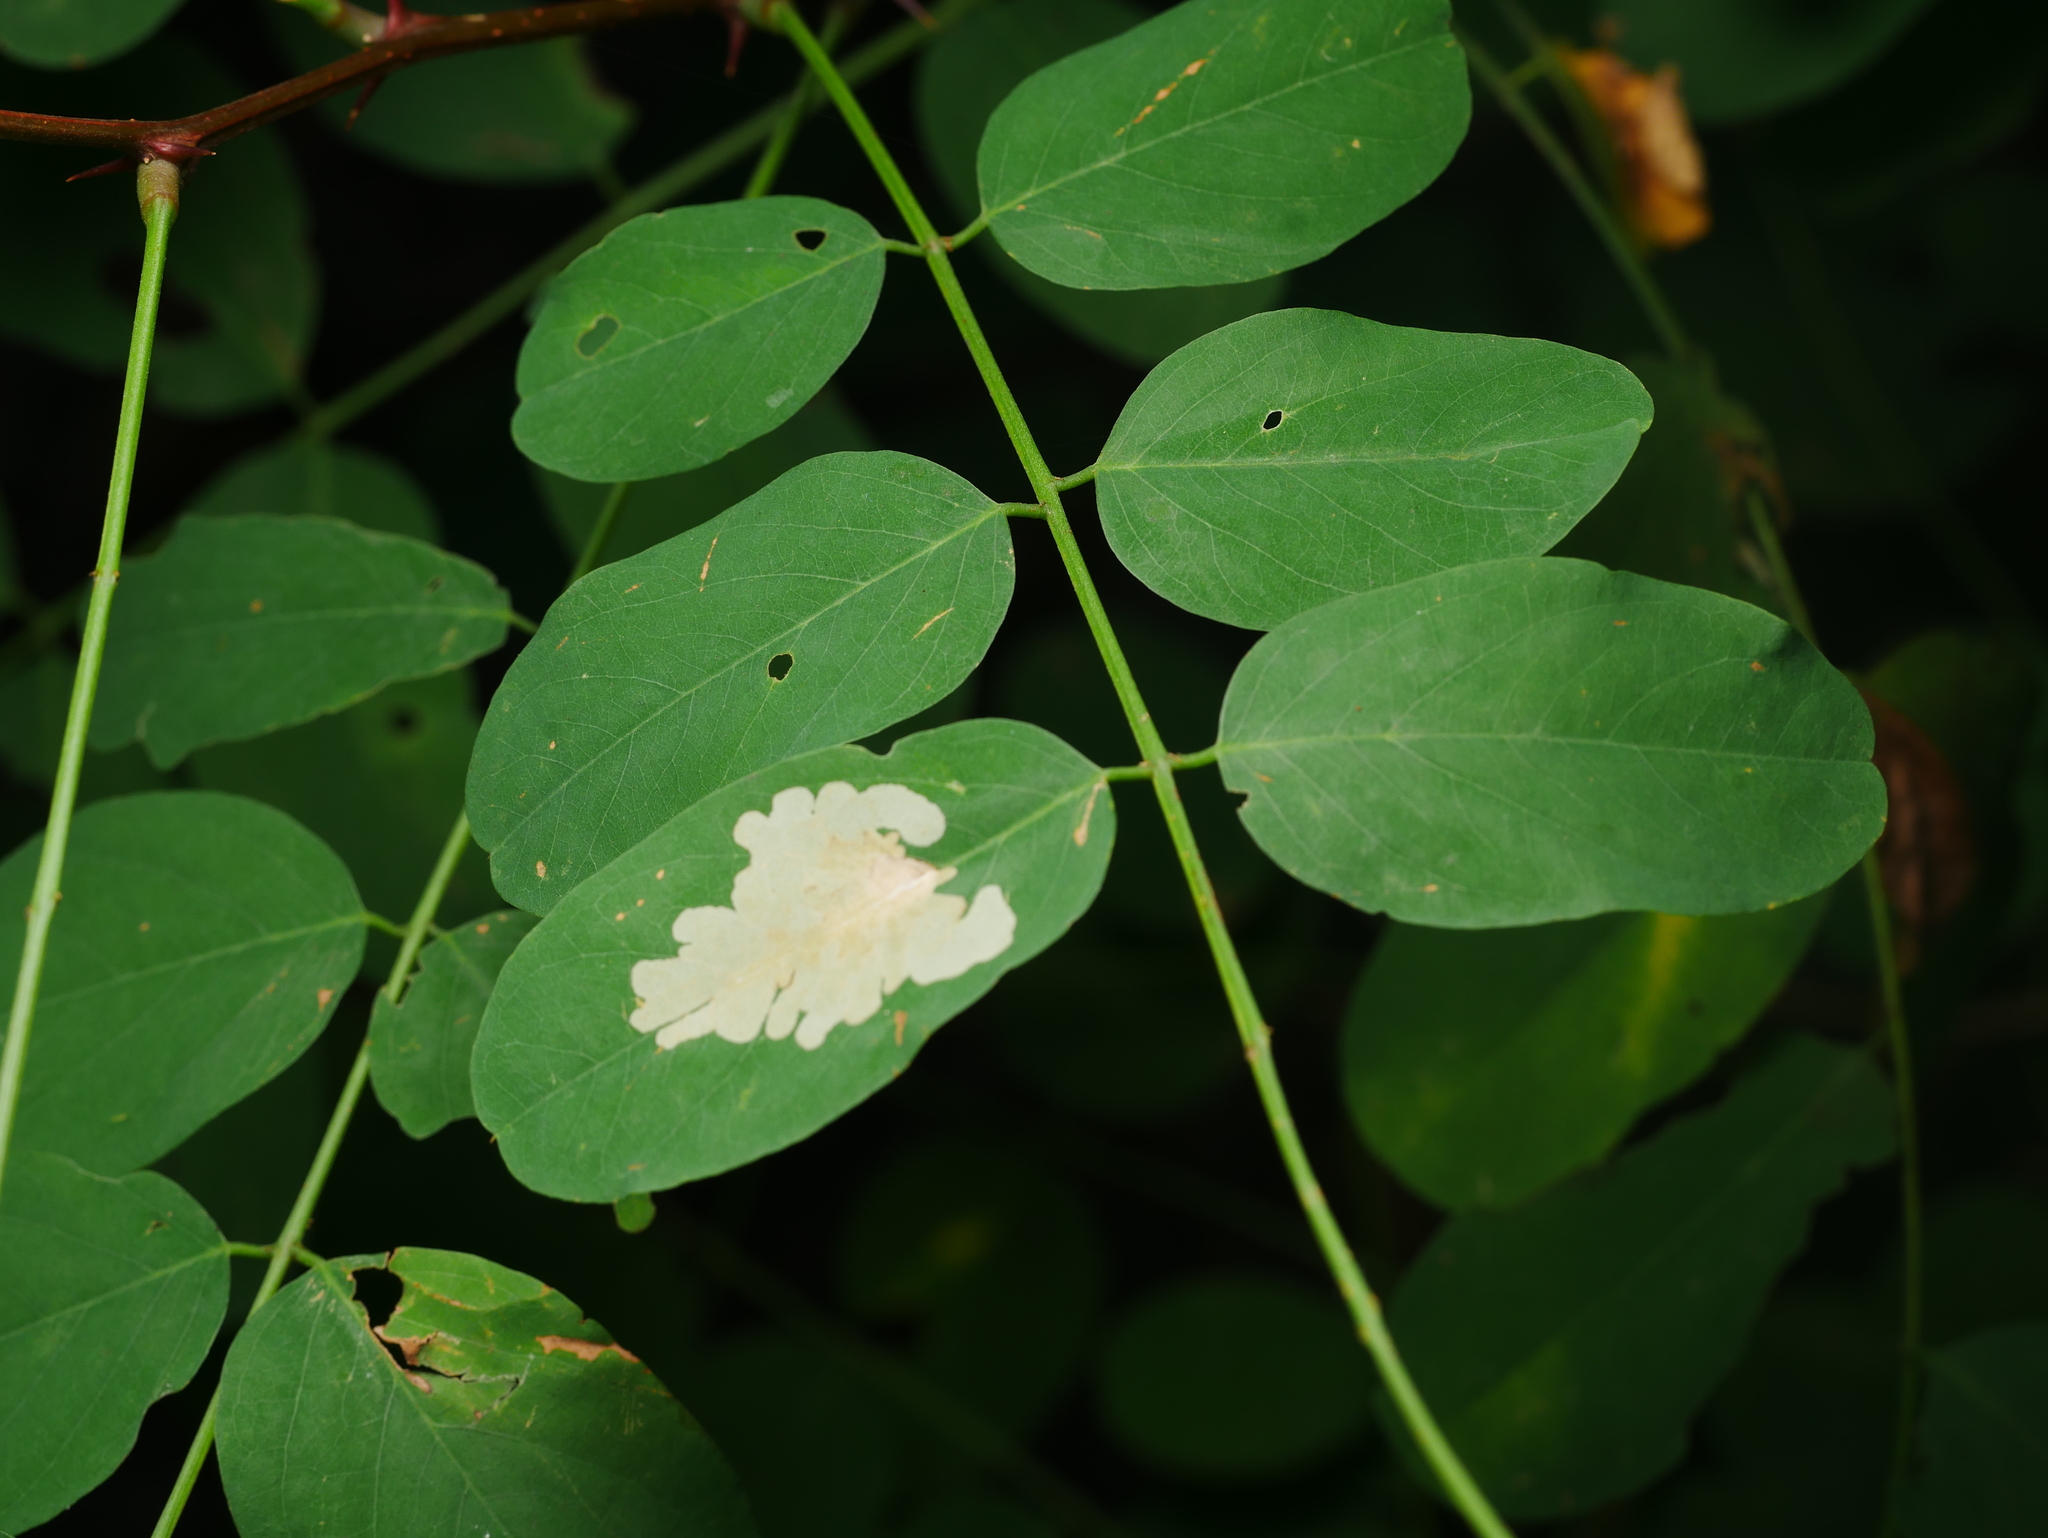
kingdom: Animalia
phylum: Arthropoda
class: Insecta
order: Lepidoptera
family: Gracillariidae
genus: Parectopa
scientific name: Parectopa robiniella
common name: Locust digitate leafminer
